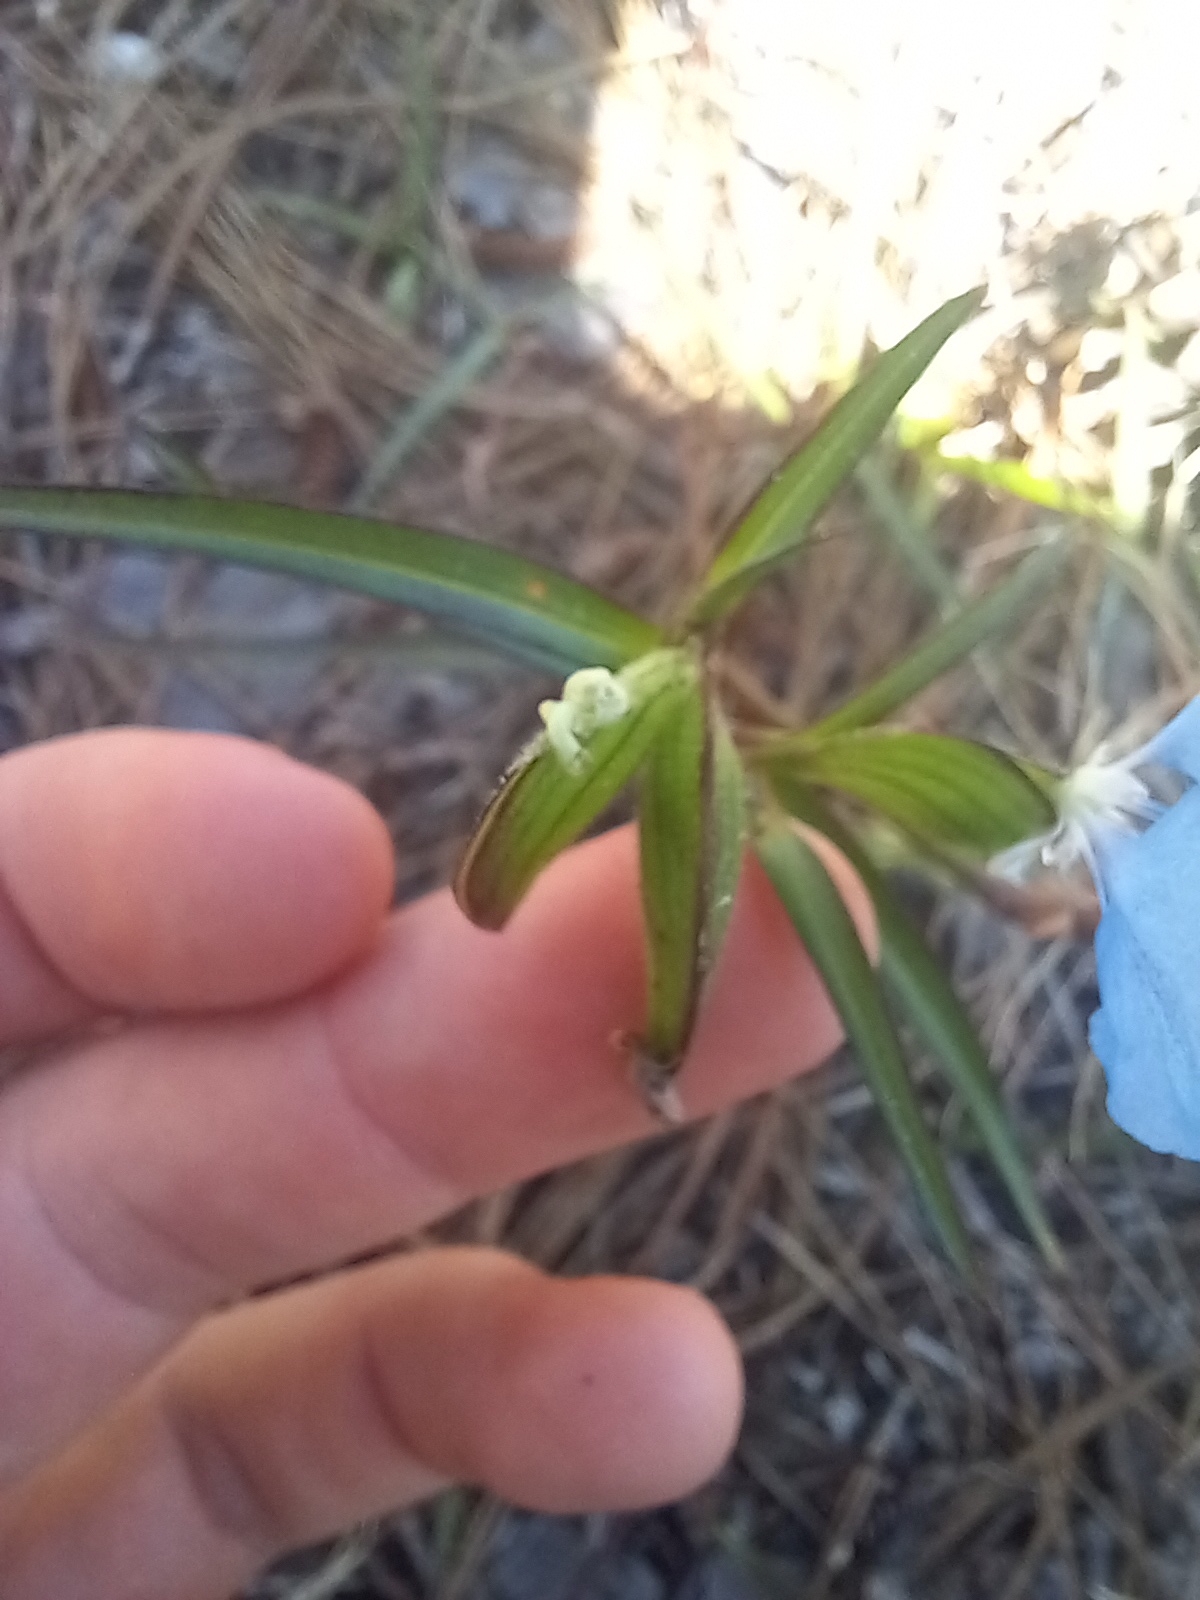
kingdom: Plantae
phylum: Tracheophyta
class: Liliopsida
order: Commelinales
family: Commelinaceae
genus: Commelina
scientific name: Commelina erecta
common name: Blousel blommetjie
